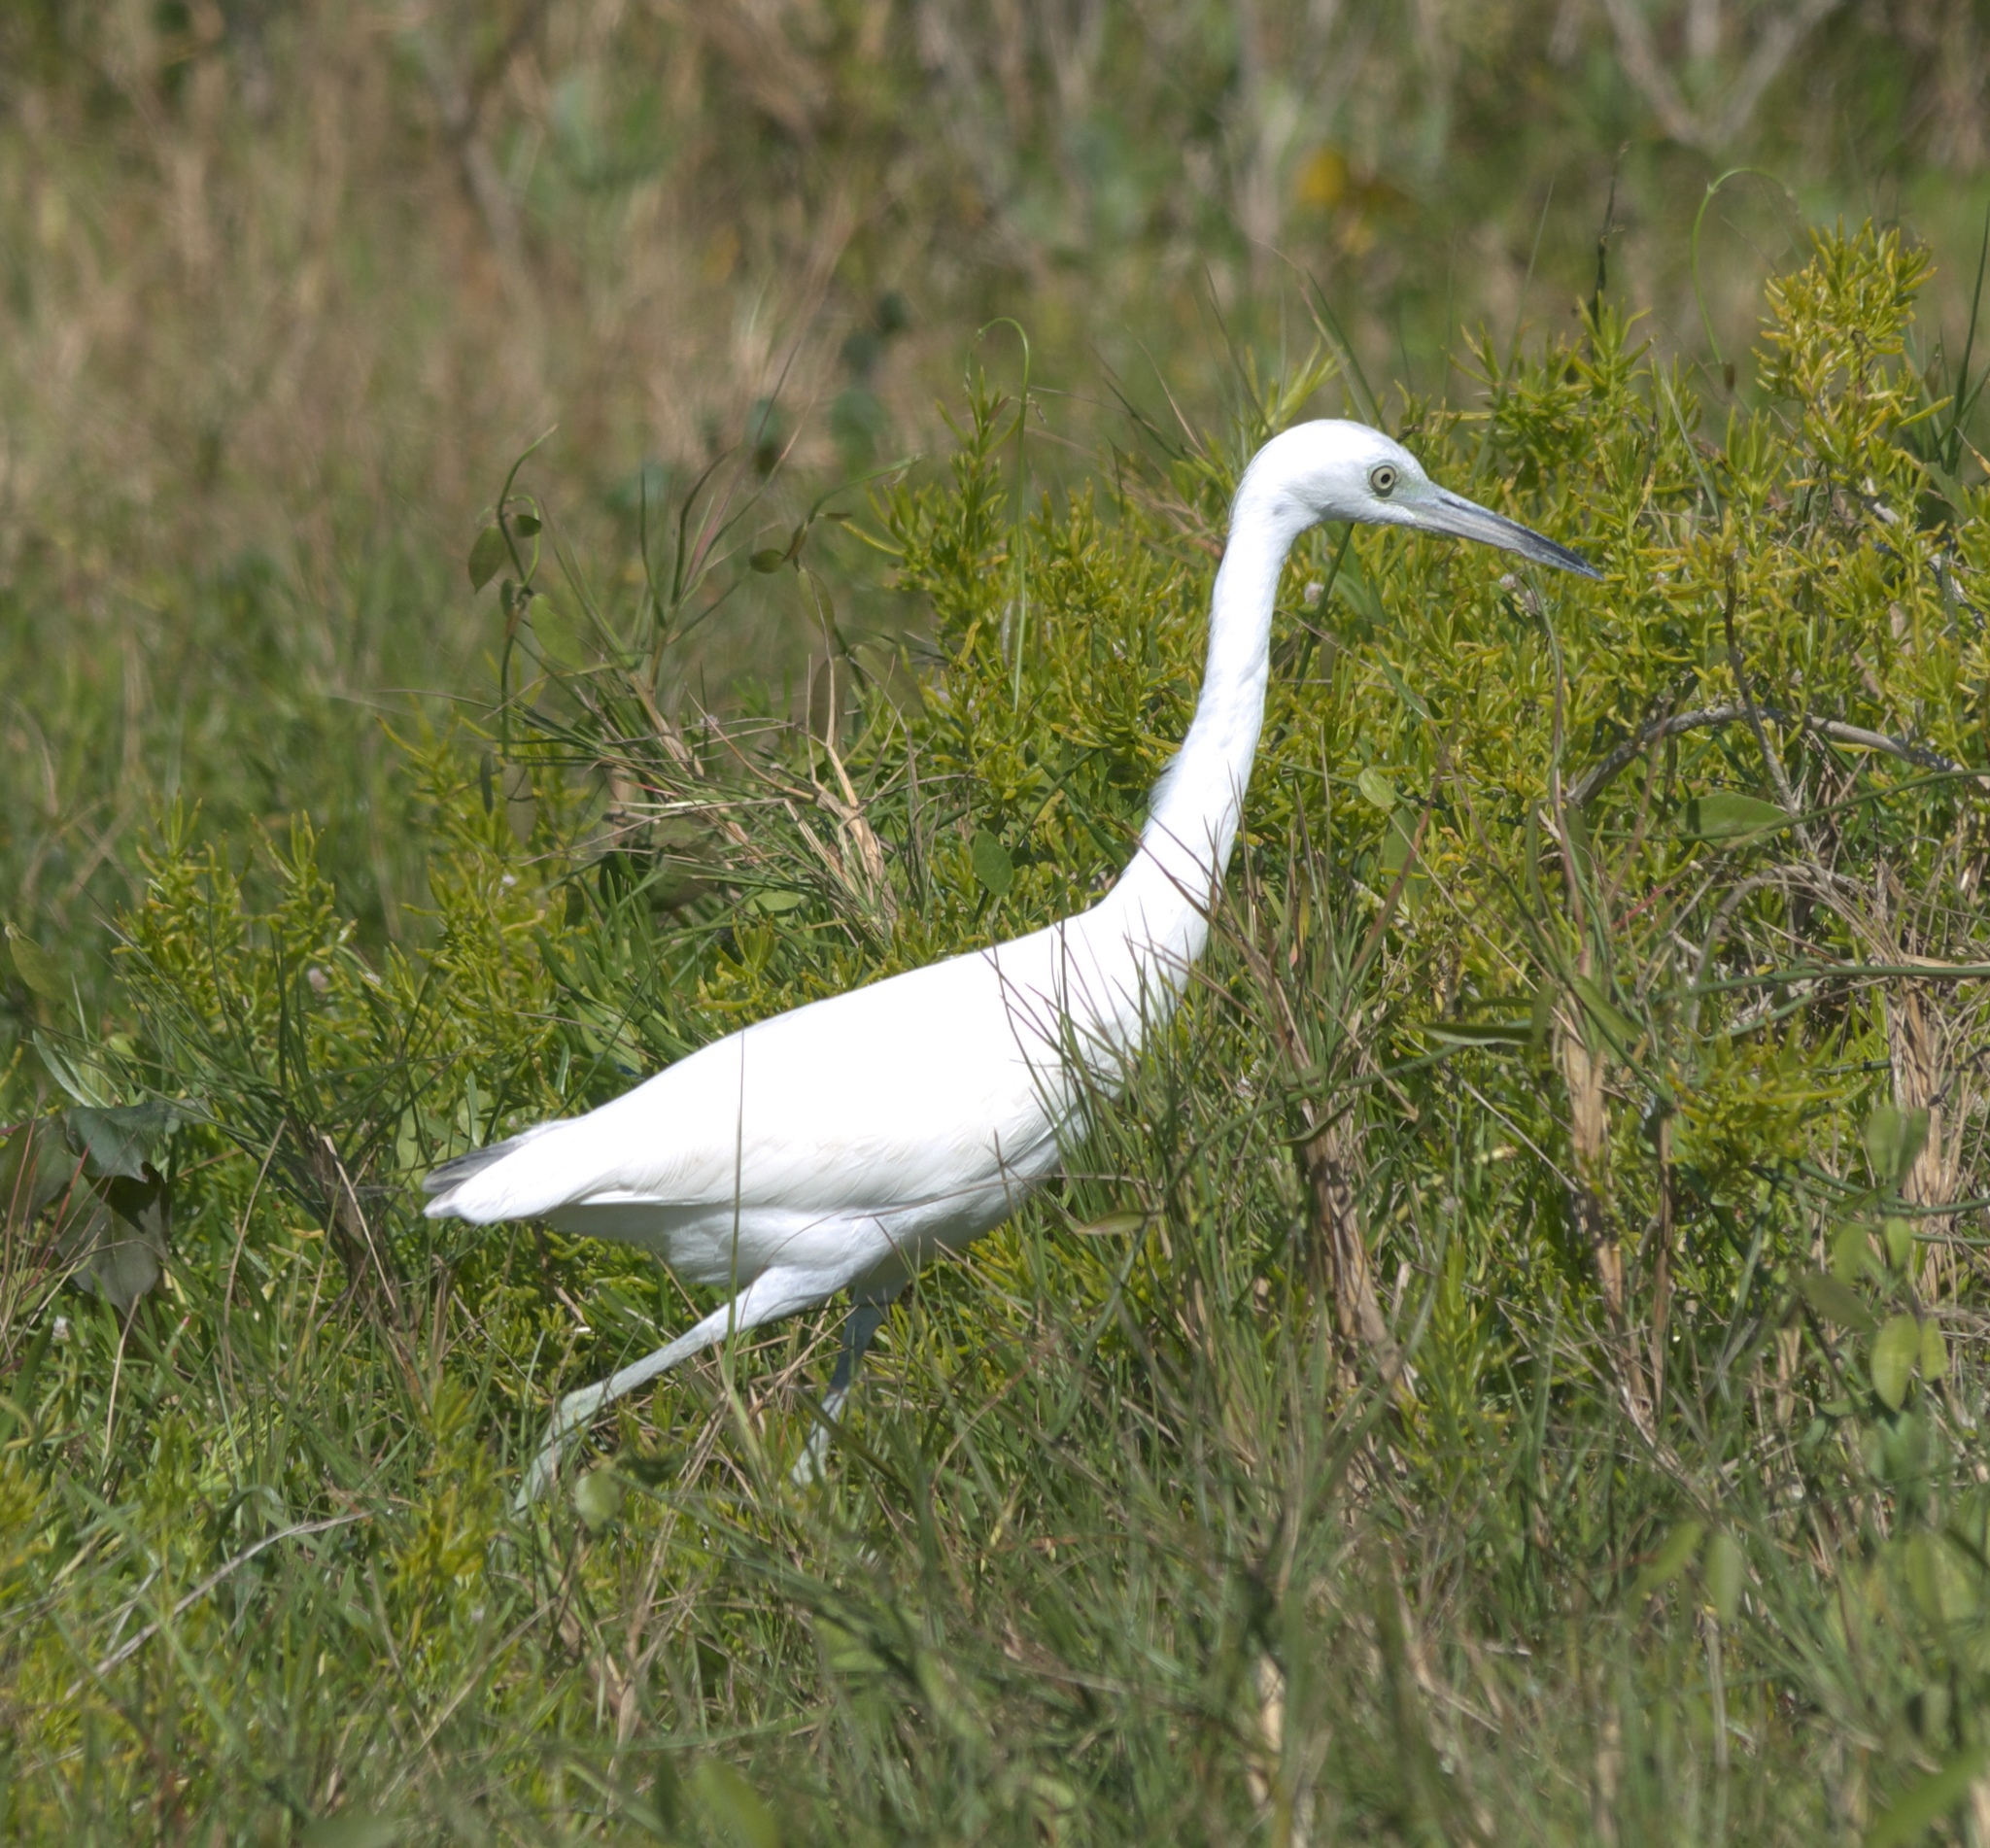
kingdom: Animalia
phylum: Chordata
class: Aves
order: Pelecaniformes
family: Ardeidae
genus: Egretta
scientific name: Egretta caerulea
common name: Little blue heron
